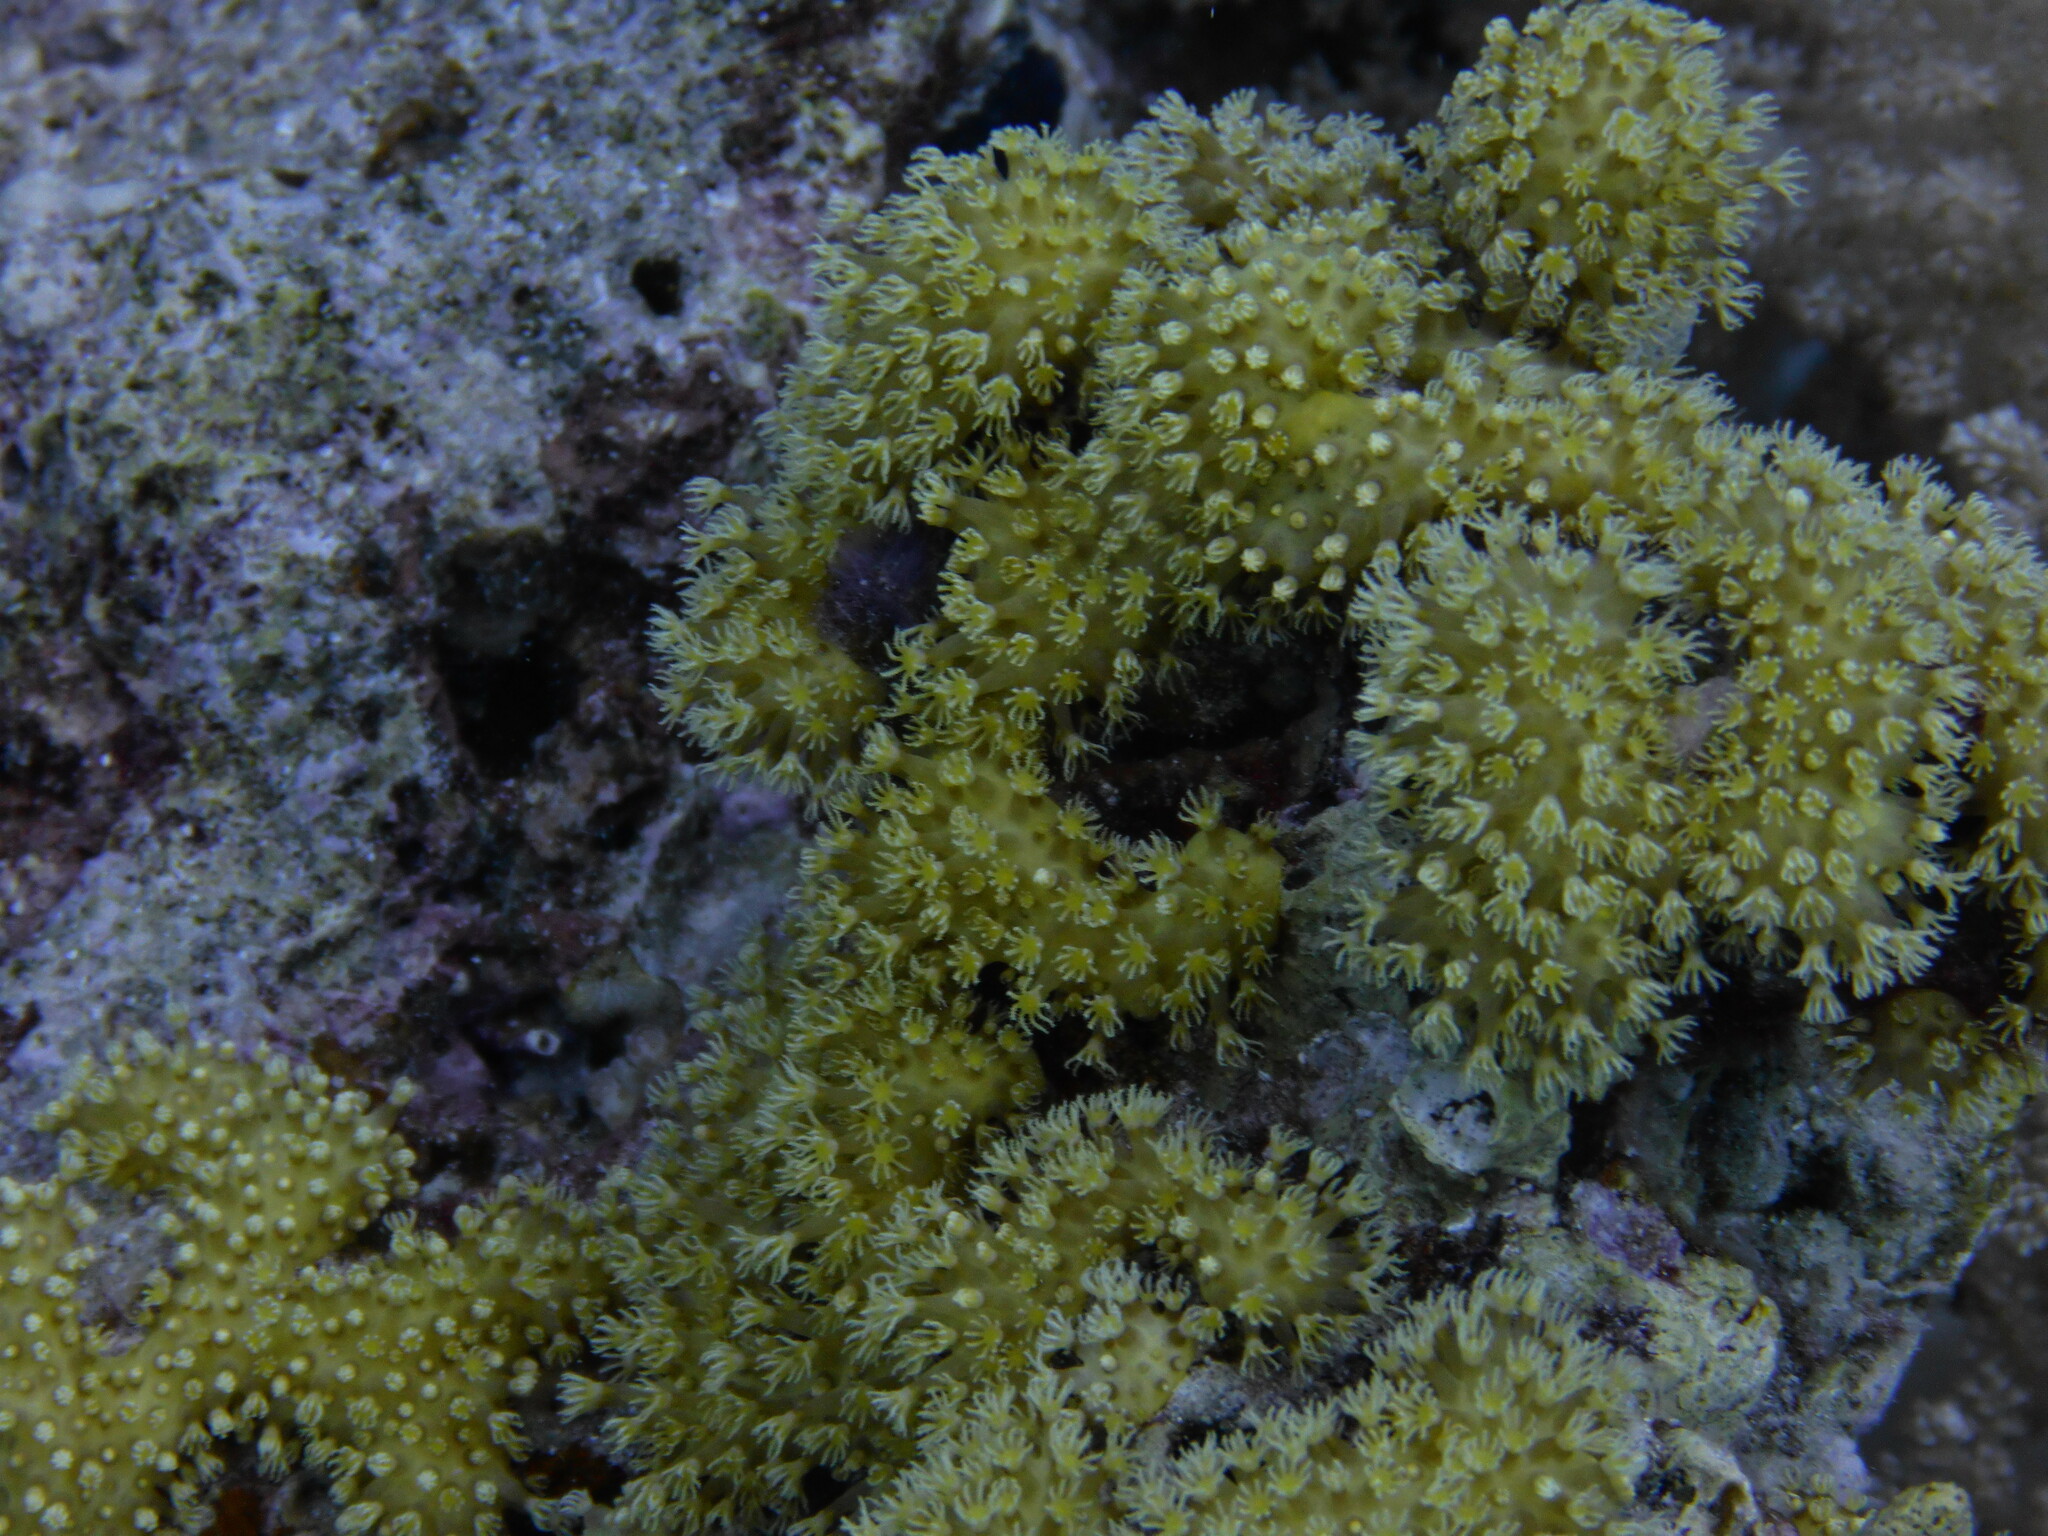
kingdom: Animalia
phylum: Cnidaria
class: Anthozoa
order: Malacalcyonacea
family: Lemnaliadae
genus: Rhytisma
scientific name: Rhytisma fulvum
